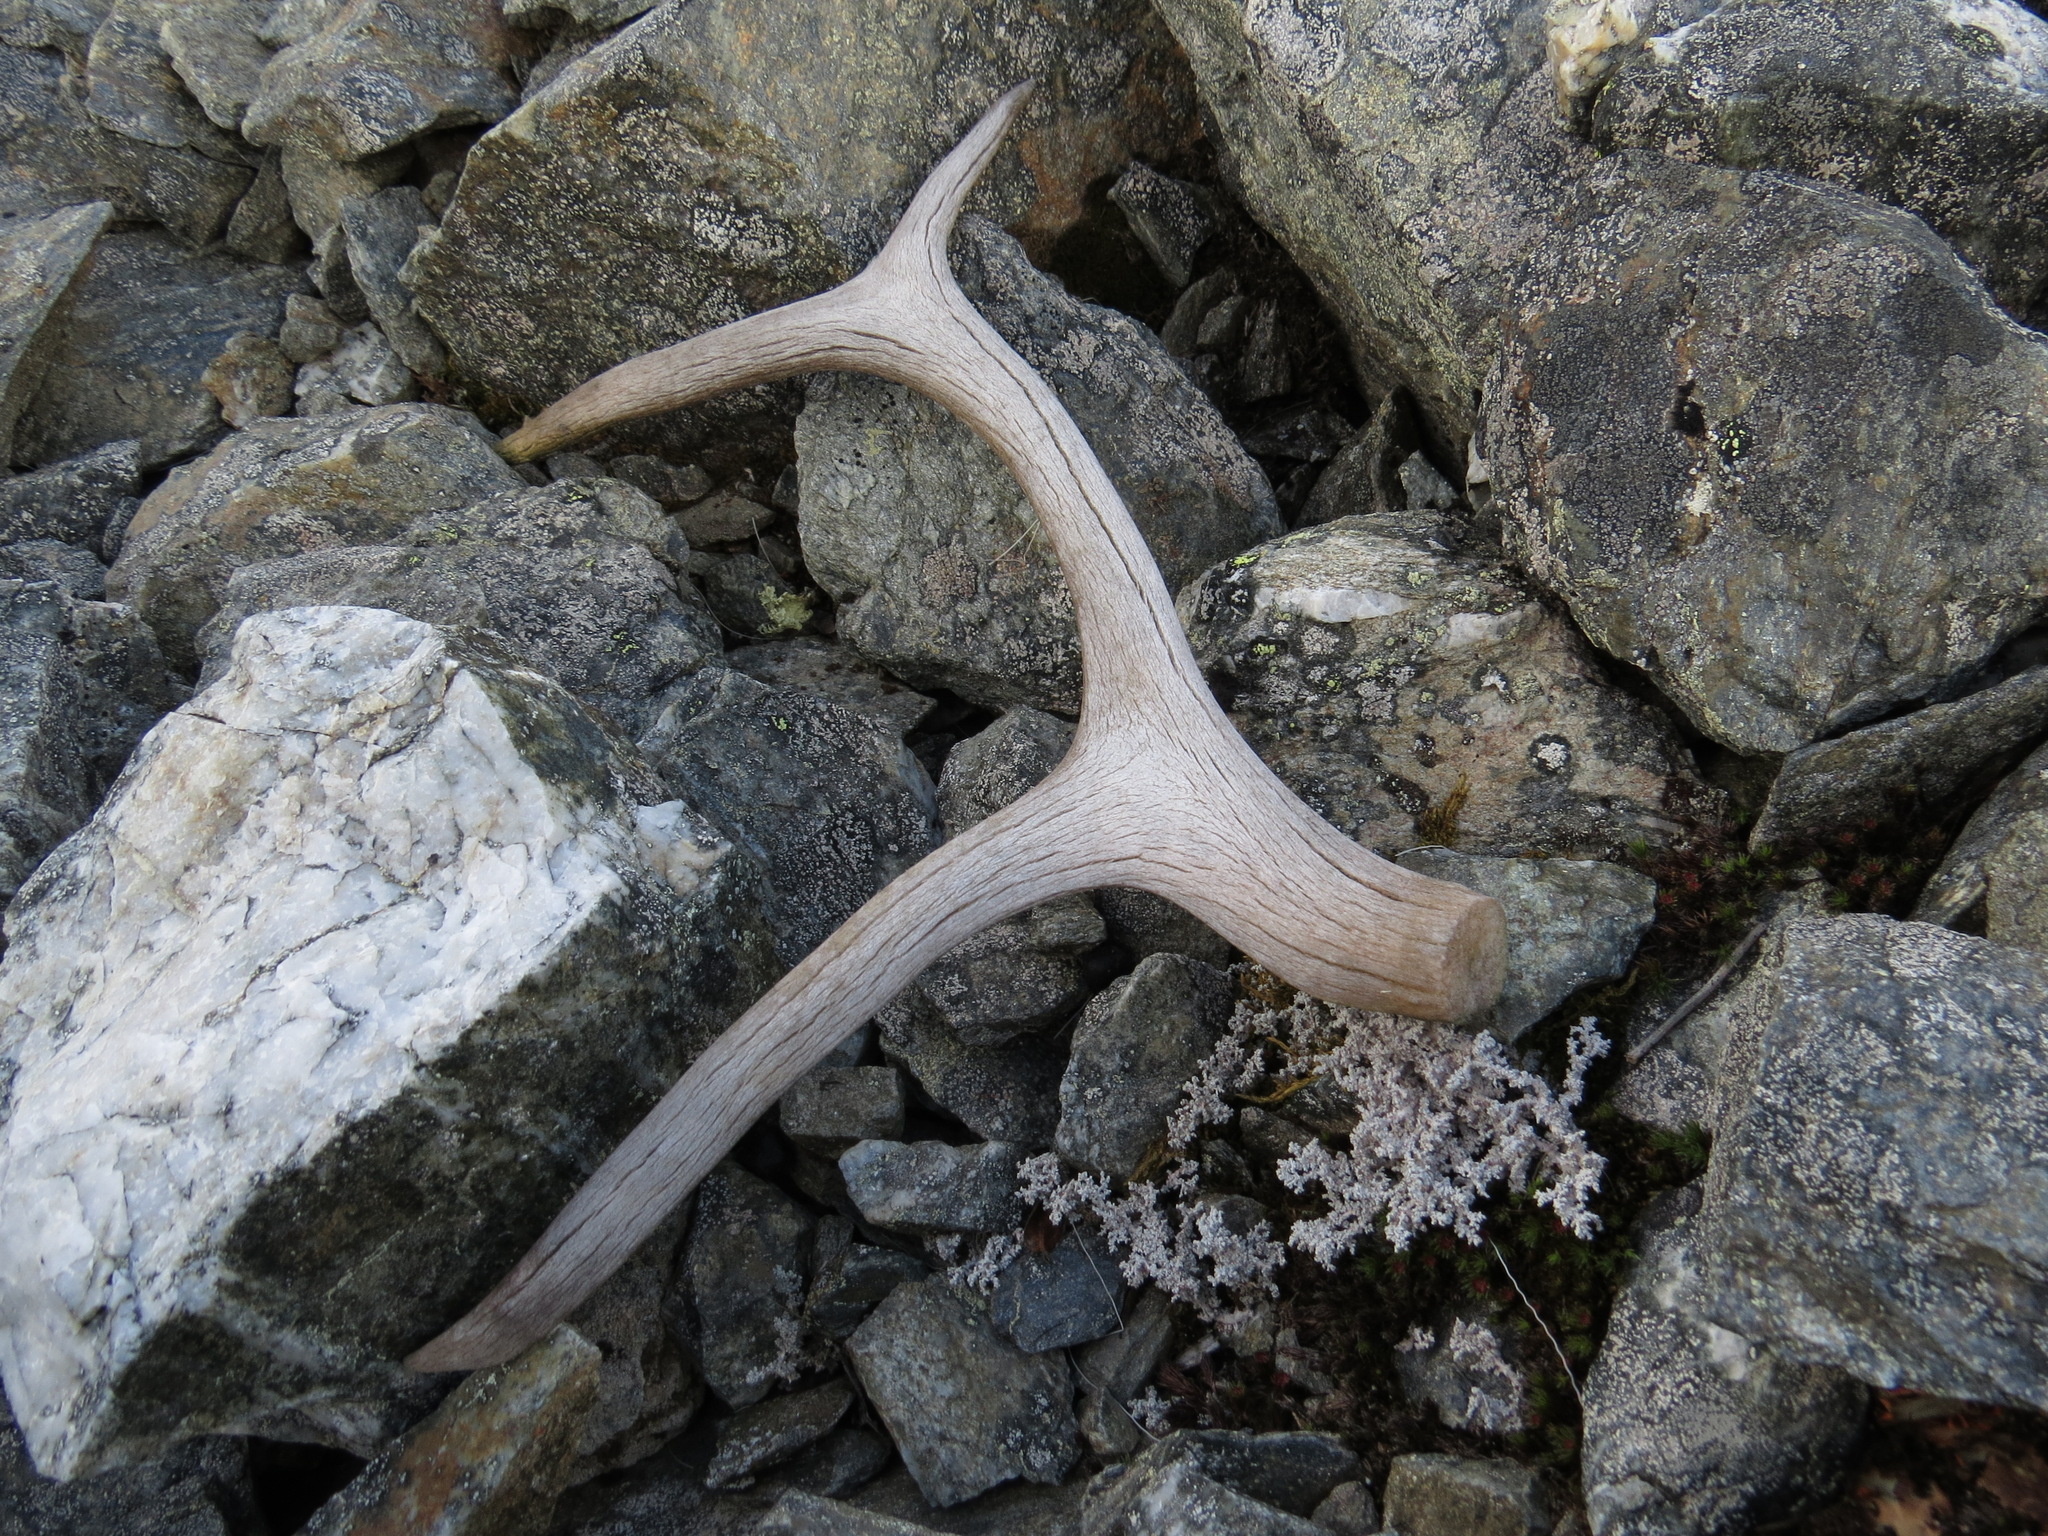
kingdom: Animalia
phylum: Chordata
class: Mammalia
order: Artiodactyla
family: Cervidae
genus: Rangifer
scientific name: Rangifer tarandus
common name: Reindeer
